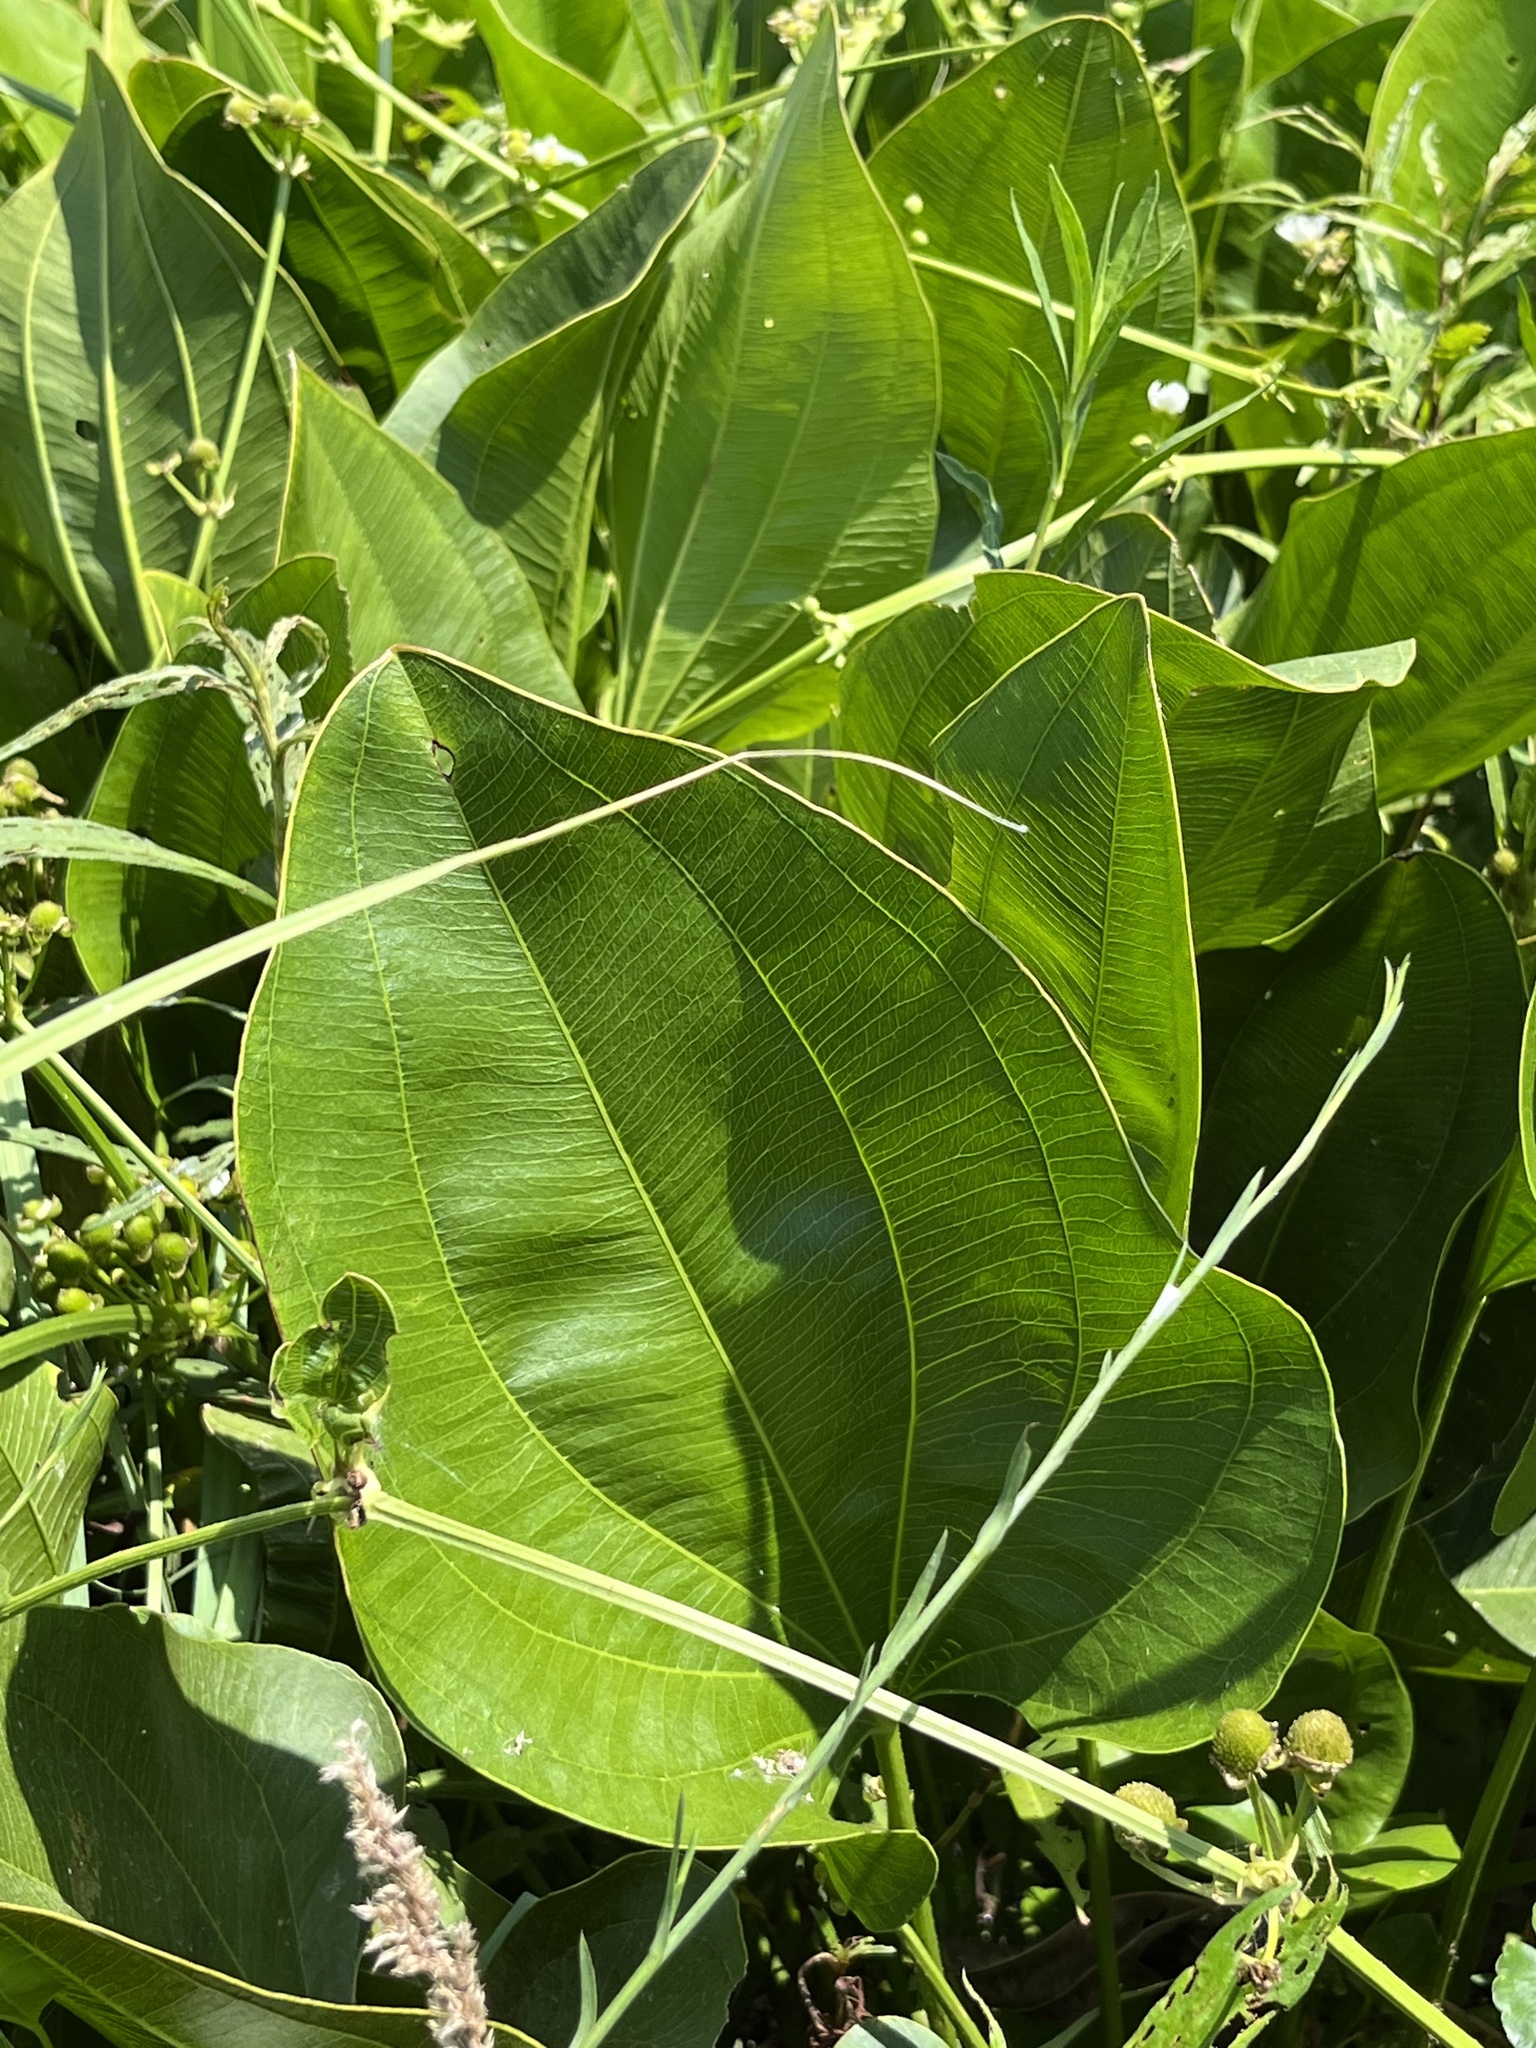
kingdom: Plantae
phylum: Tracheophyta
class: Liliopsida
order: Alismatales
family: Alismataceae
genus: Aquarius
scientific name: Aquarius cordifolius
